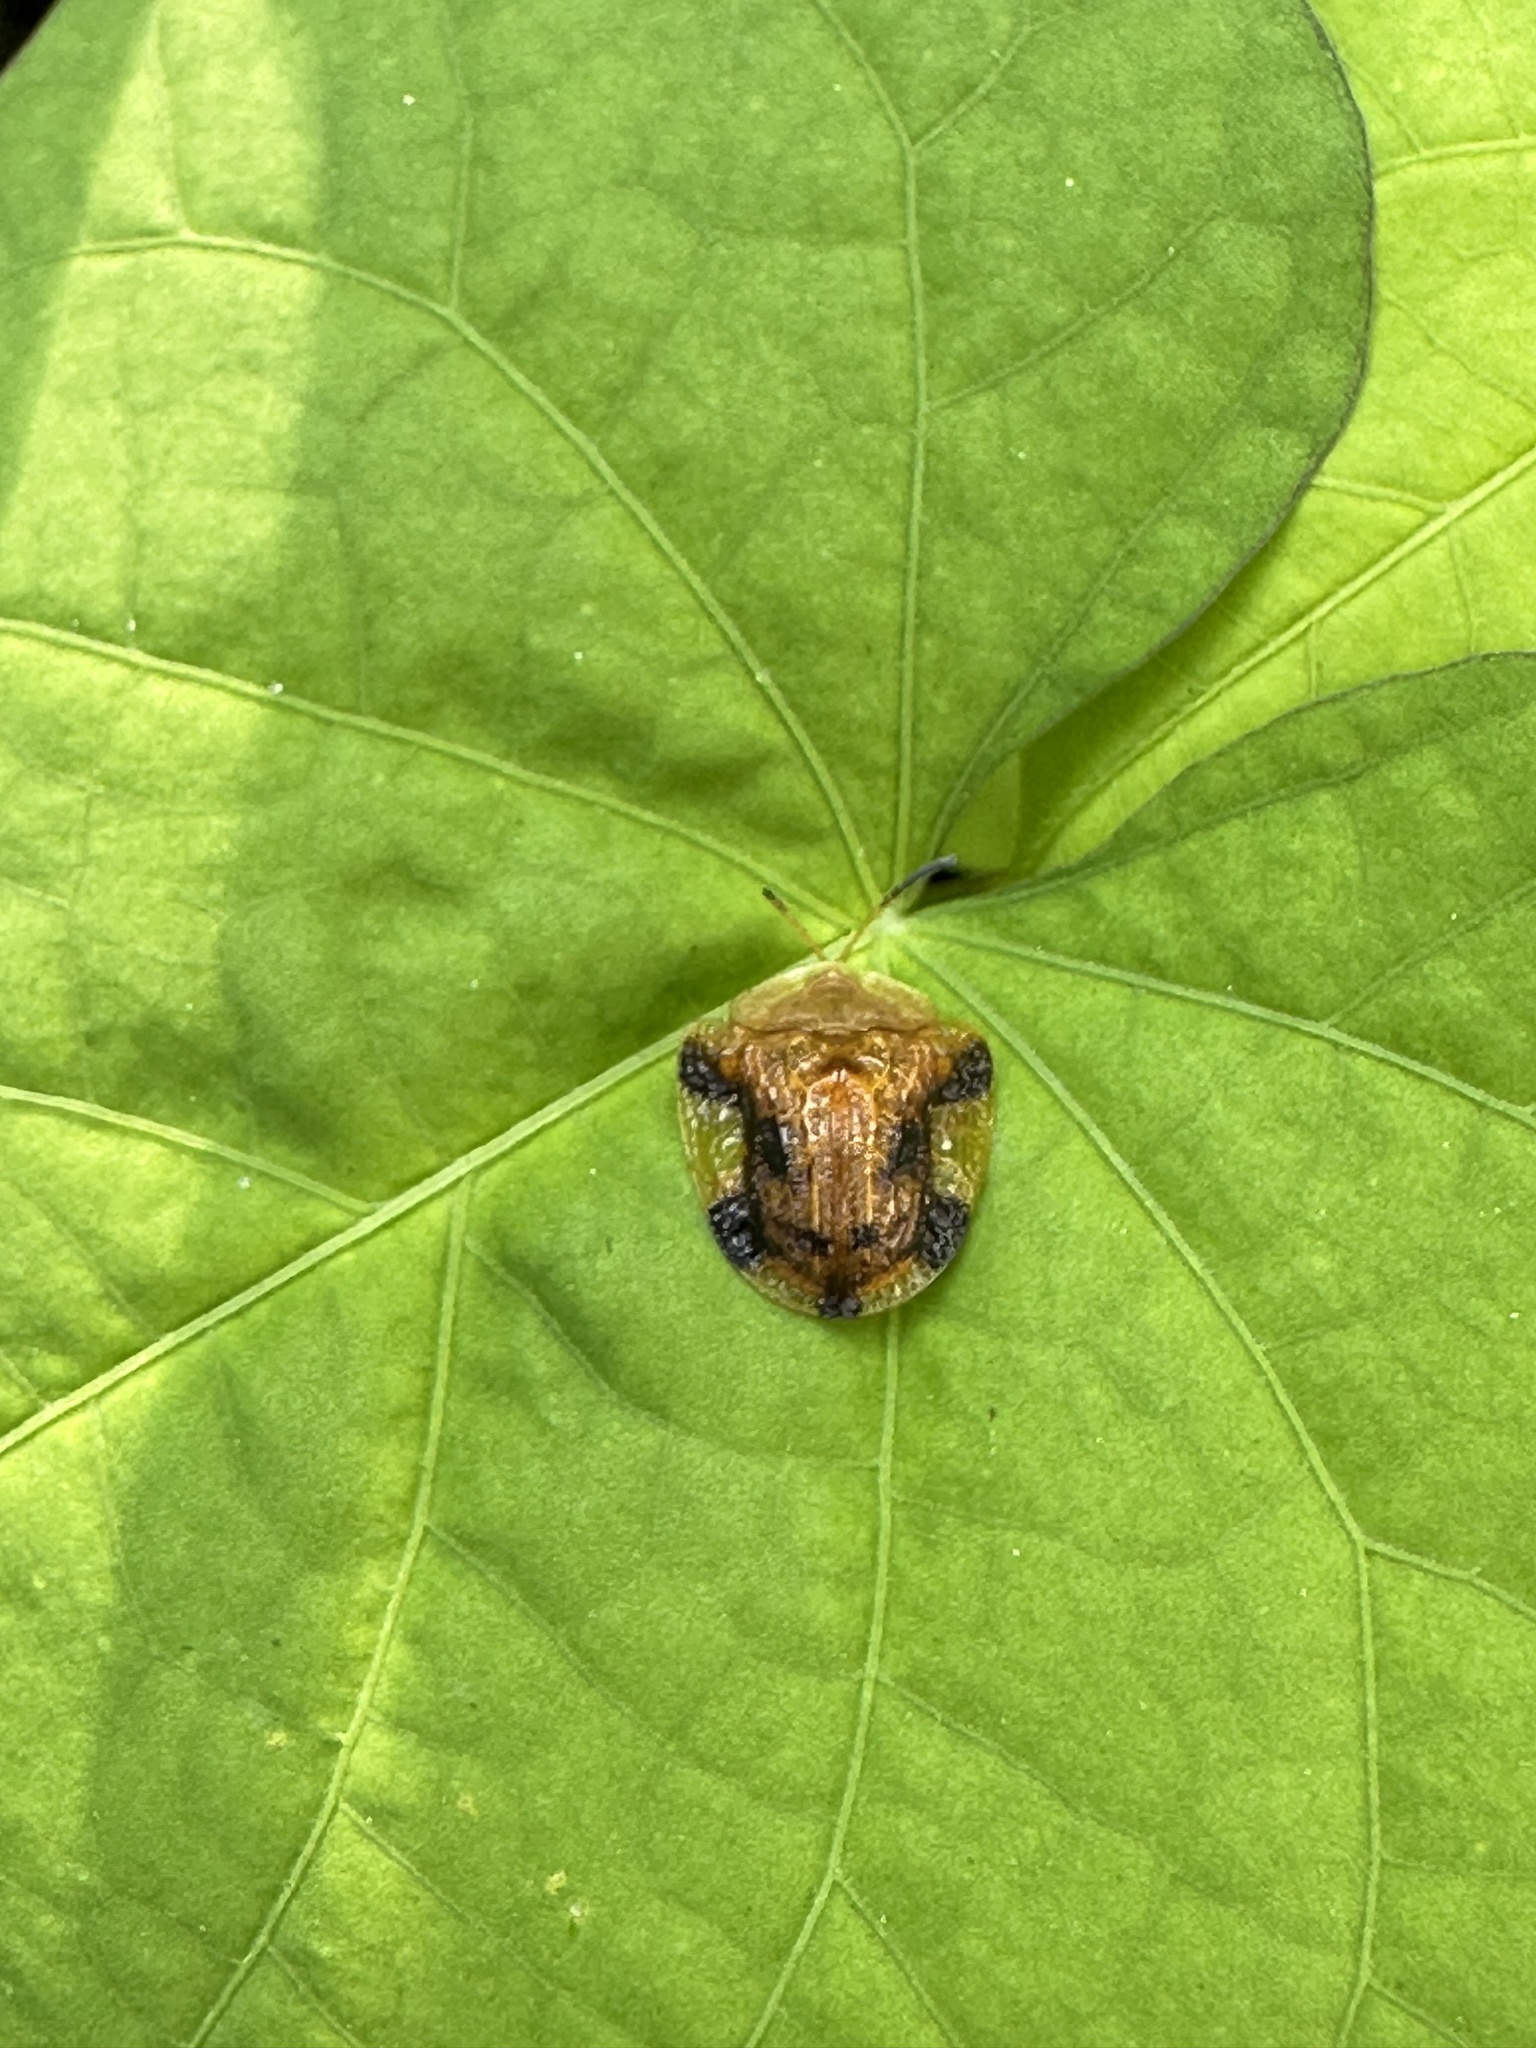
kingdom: Animalia
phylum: Arthropoda
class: Insecta
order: Coleoptera
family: Chrysomelidae
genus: Laccoptera
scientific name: Laccoptera nepalensis
